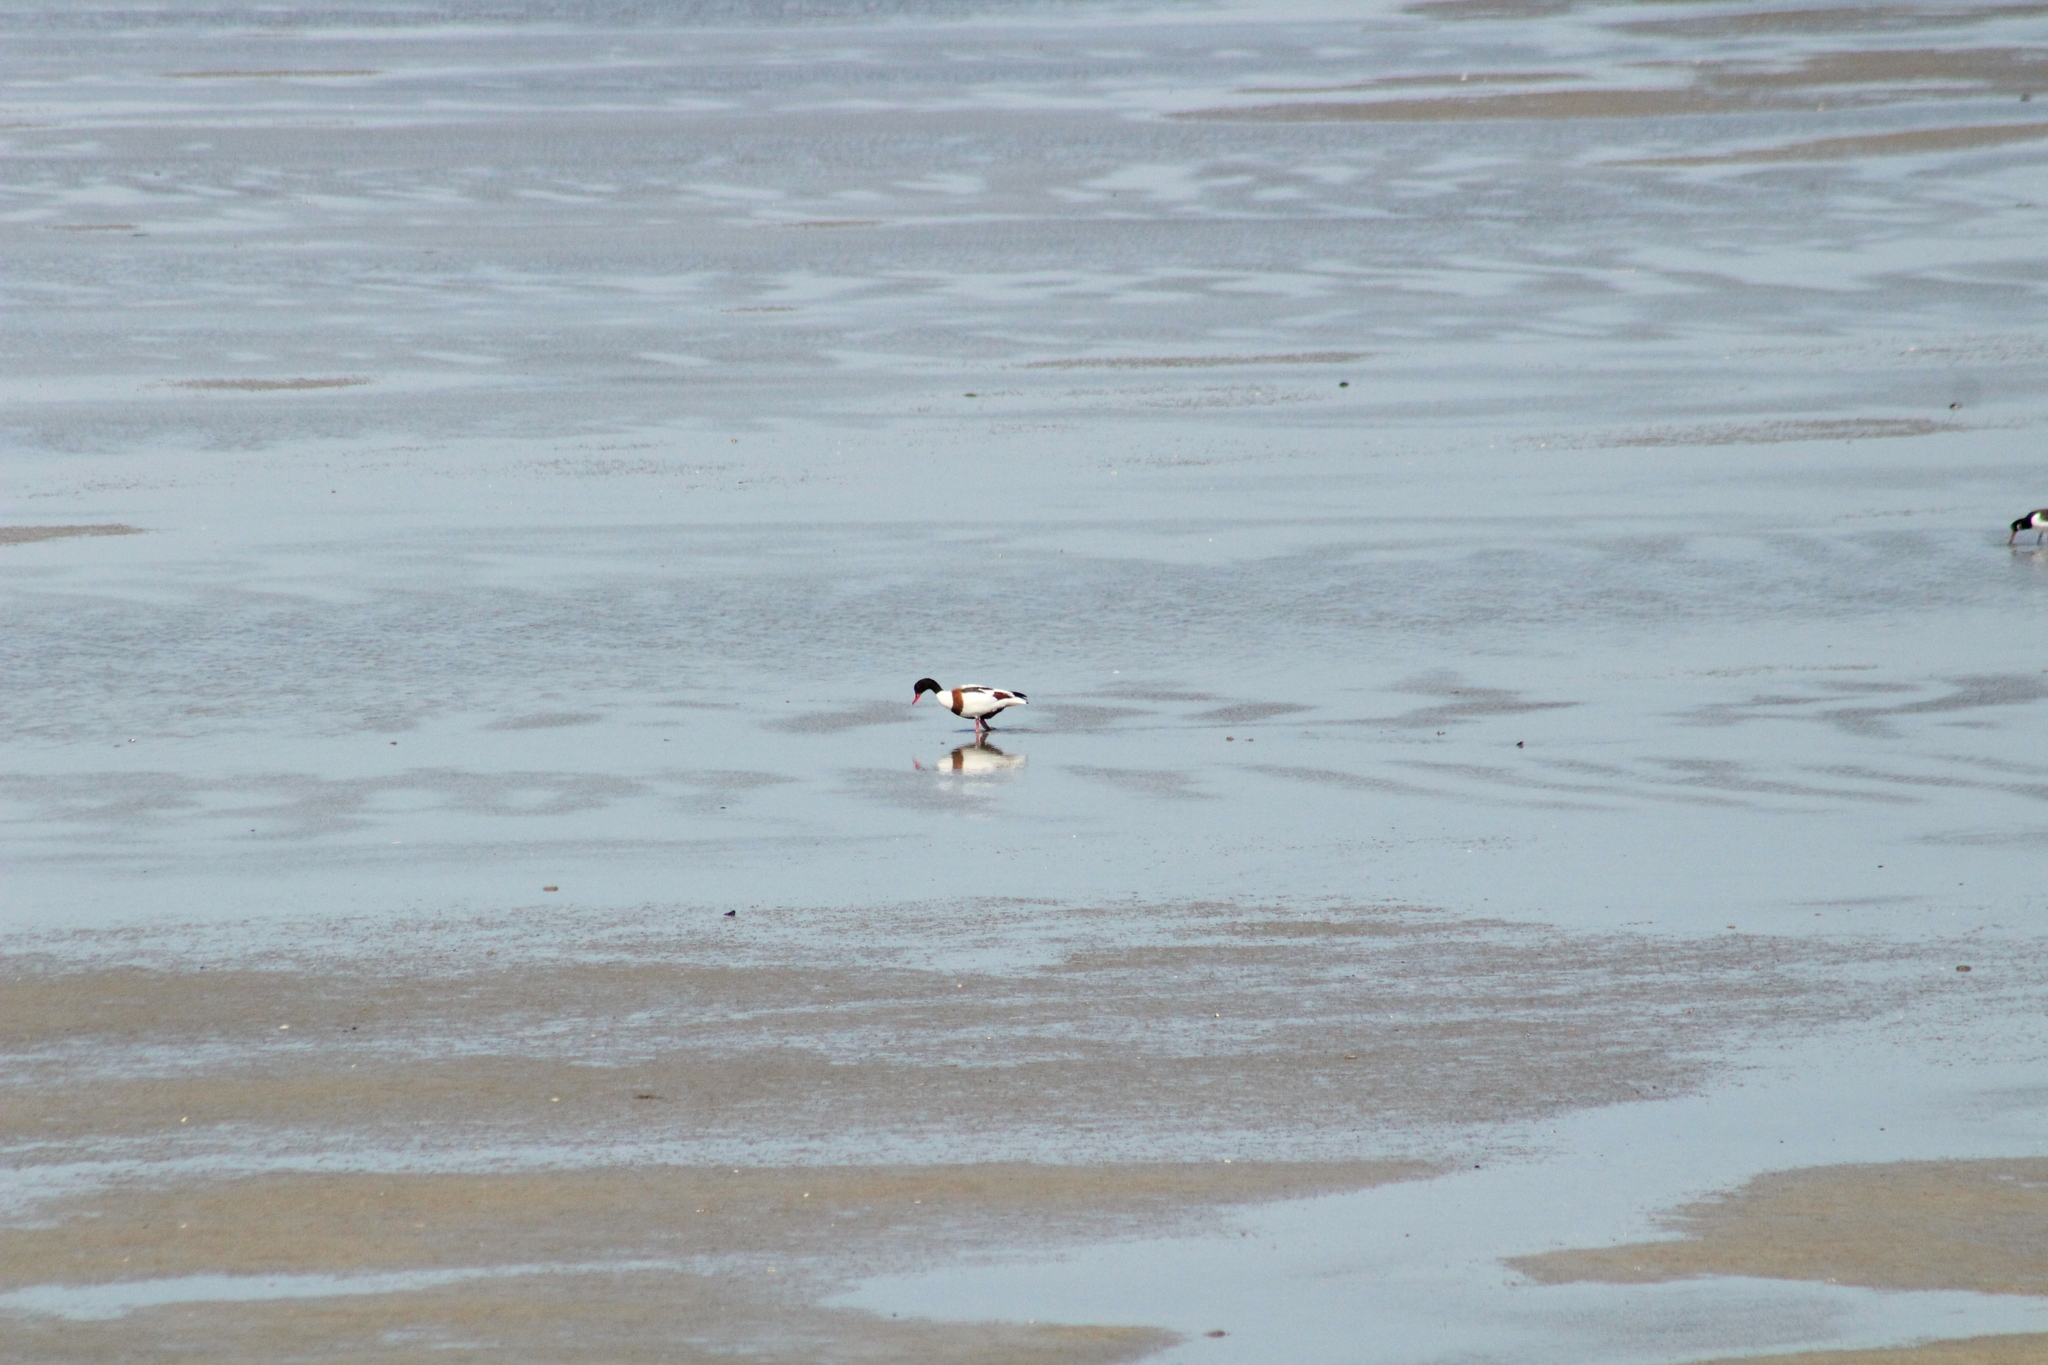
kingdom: Animalia
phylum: Chordata
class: Aves
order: Anseriformes
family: Anatidae
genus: Tadorna
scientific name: Tadorna tadorna
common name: Common shelduck
